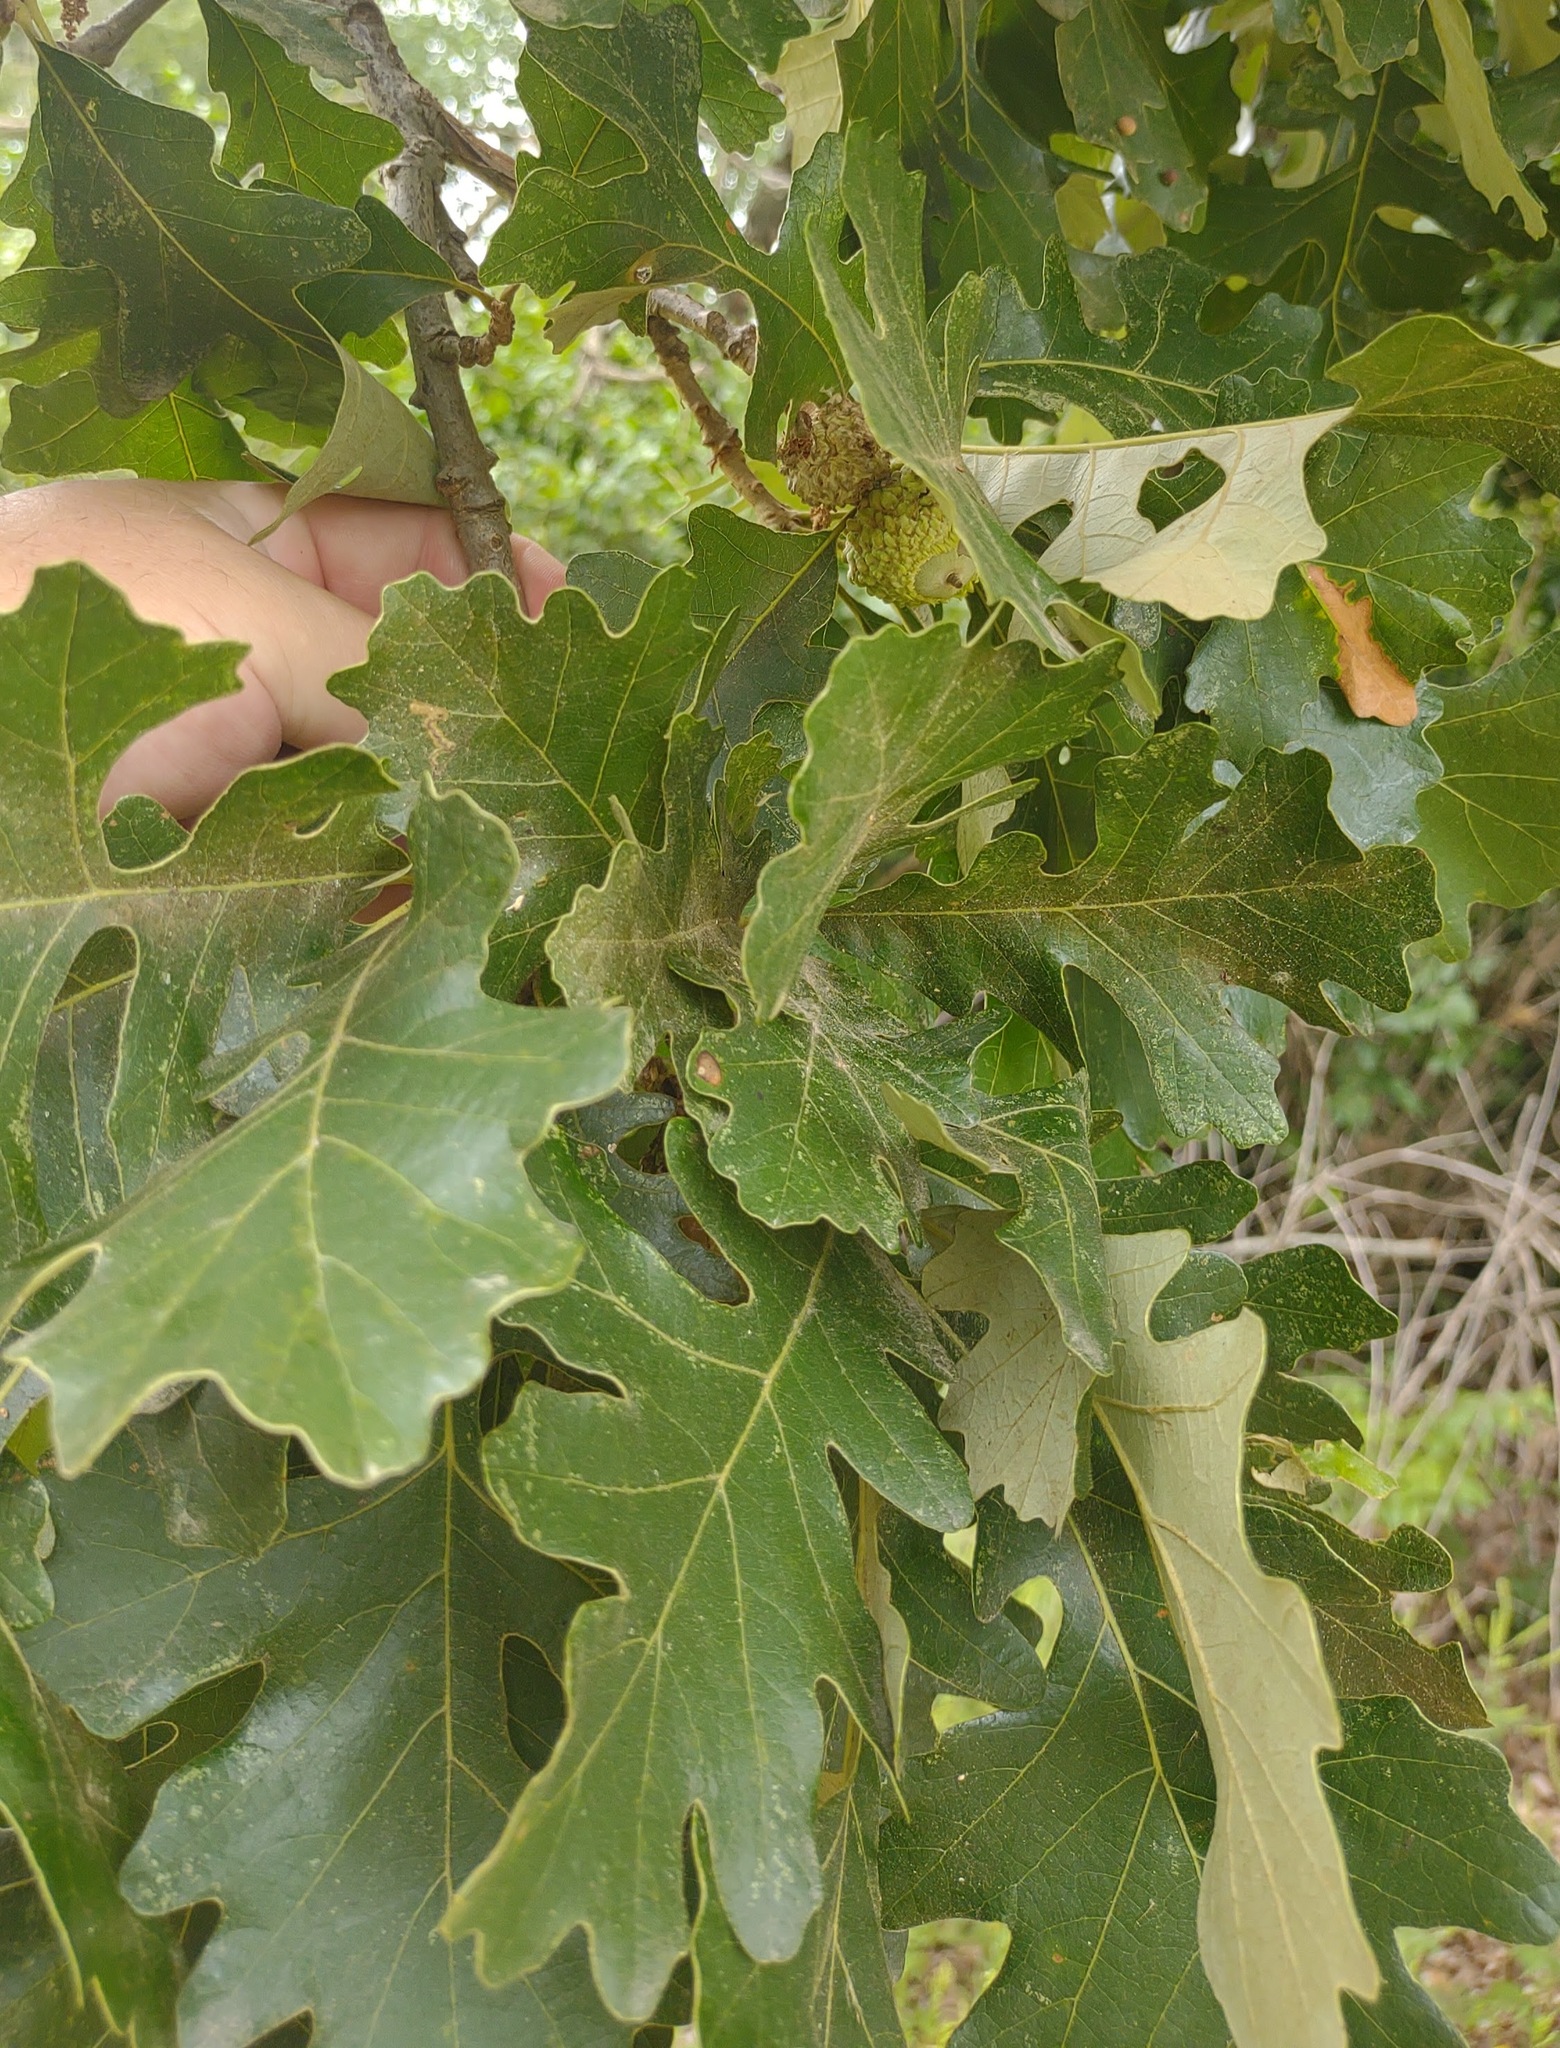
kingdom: Plantae
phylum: Tracheophyta
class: Magnoliopsida
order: Fagales
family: Fagaceae
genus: Quercus
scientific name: Quercus macrocarpa
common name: Bur oak
